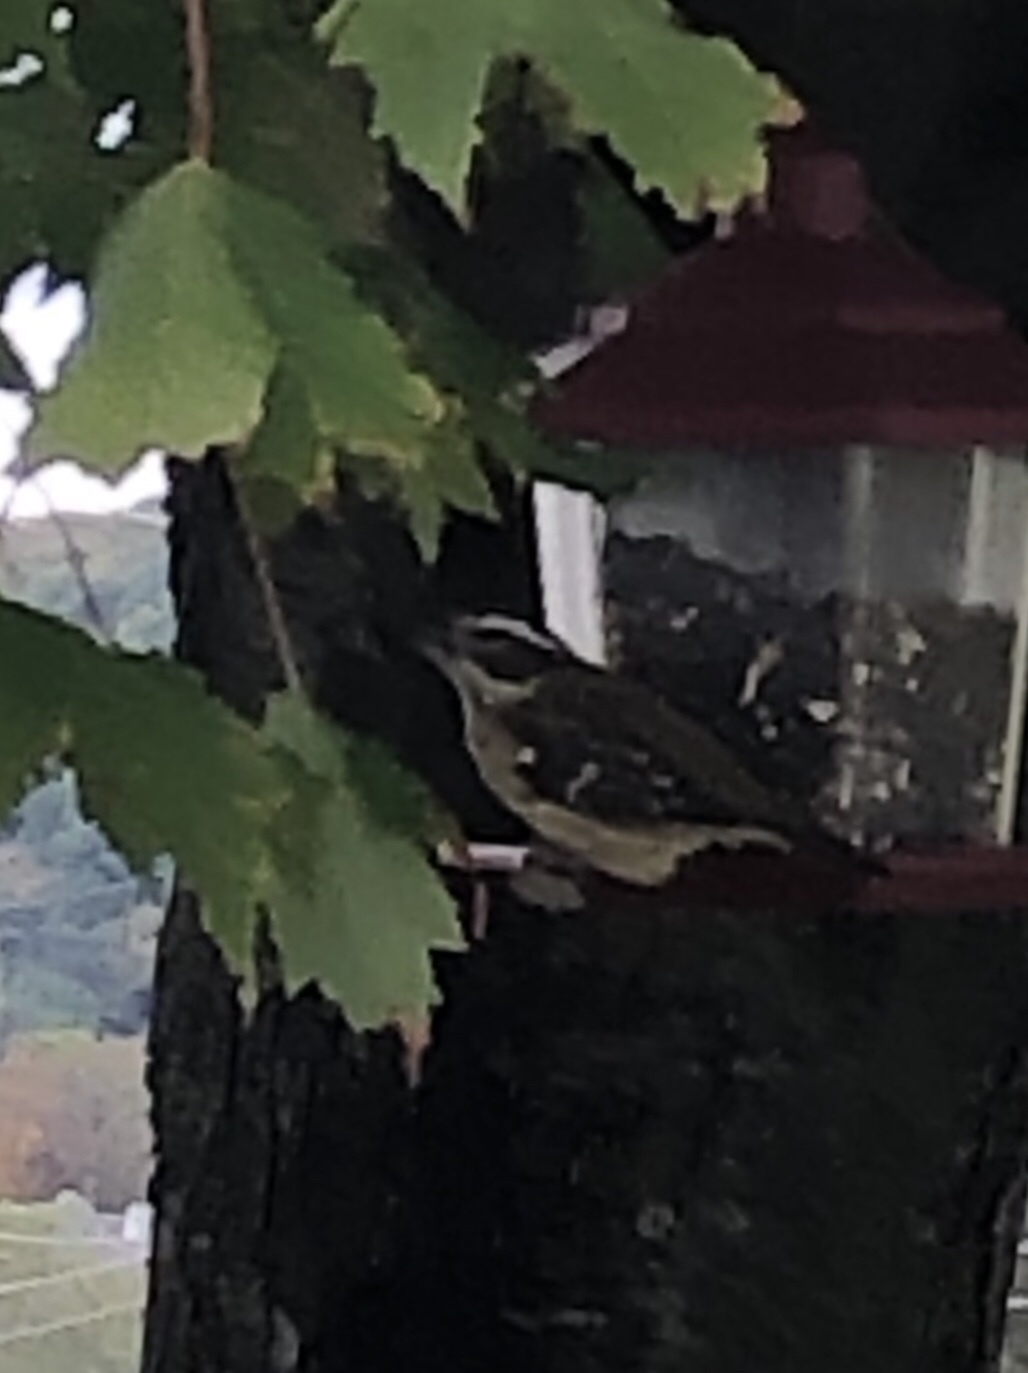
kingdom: Animalia
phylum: Chordata
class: Aves
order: Passeriformes
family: Cardinalidae
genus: Pheucticus
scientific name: Pheucticus ludovicianus
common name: Rose-breasted grosbeak
